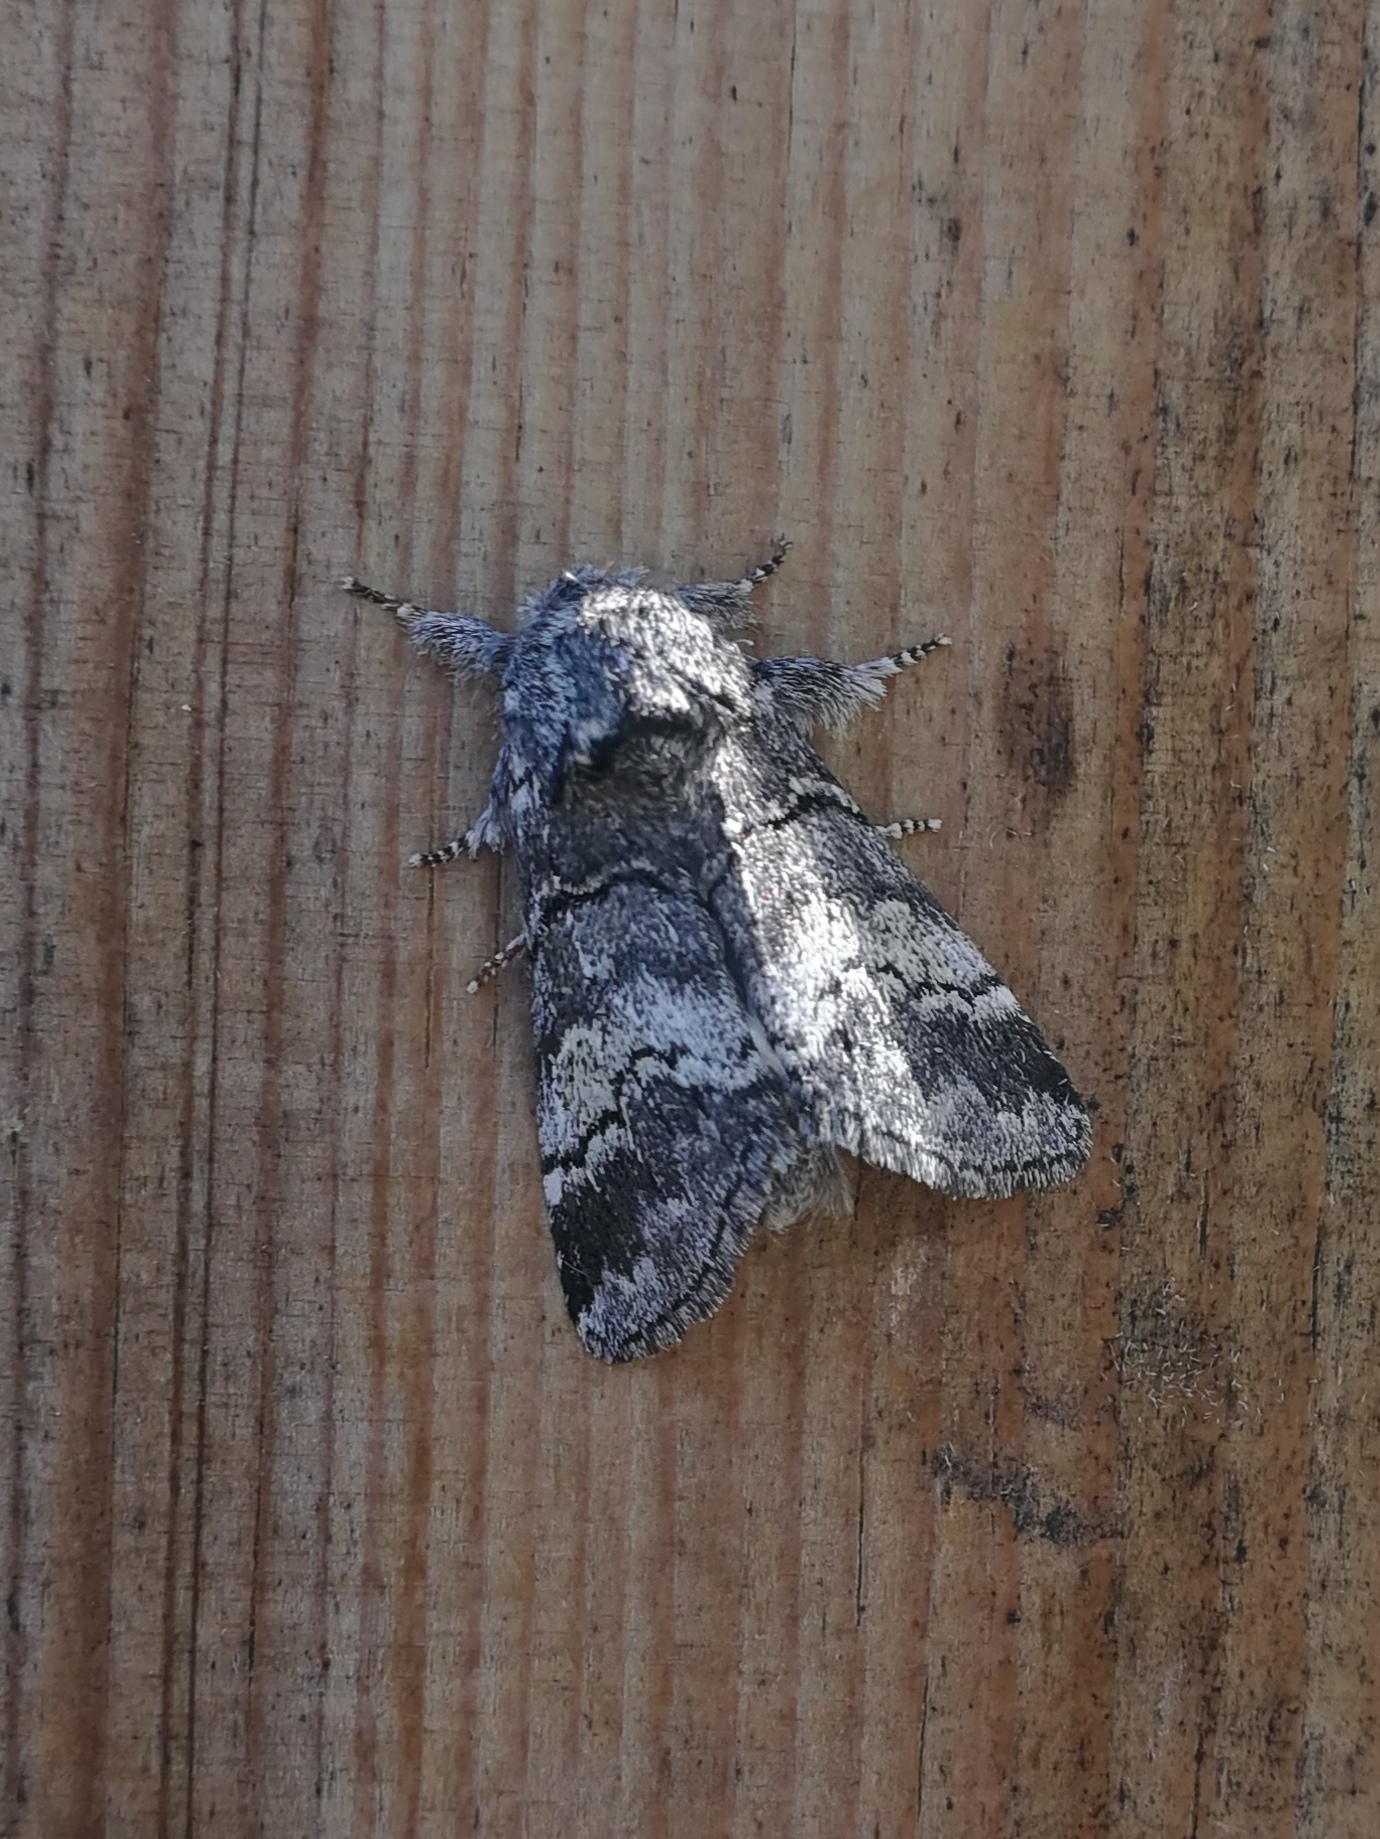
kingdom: Animalia
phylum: Arthropoda
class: Insecta
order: Lepidoptera
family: Notodontidae
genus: Drymonia
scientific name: Drymonia querna
